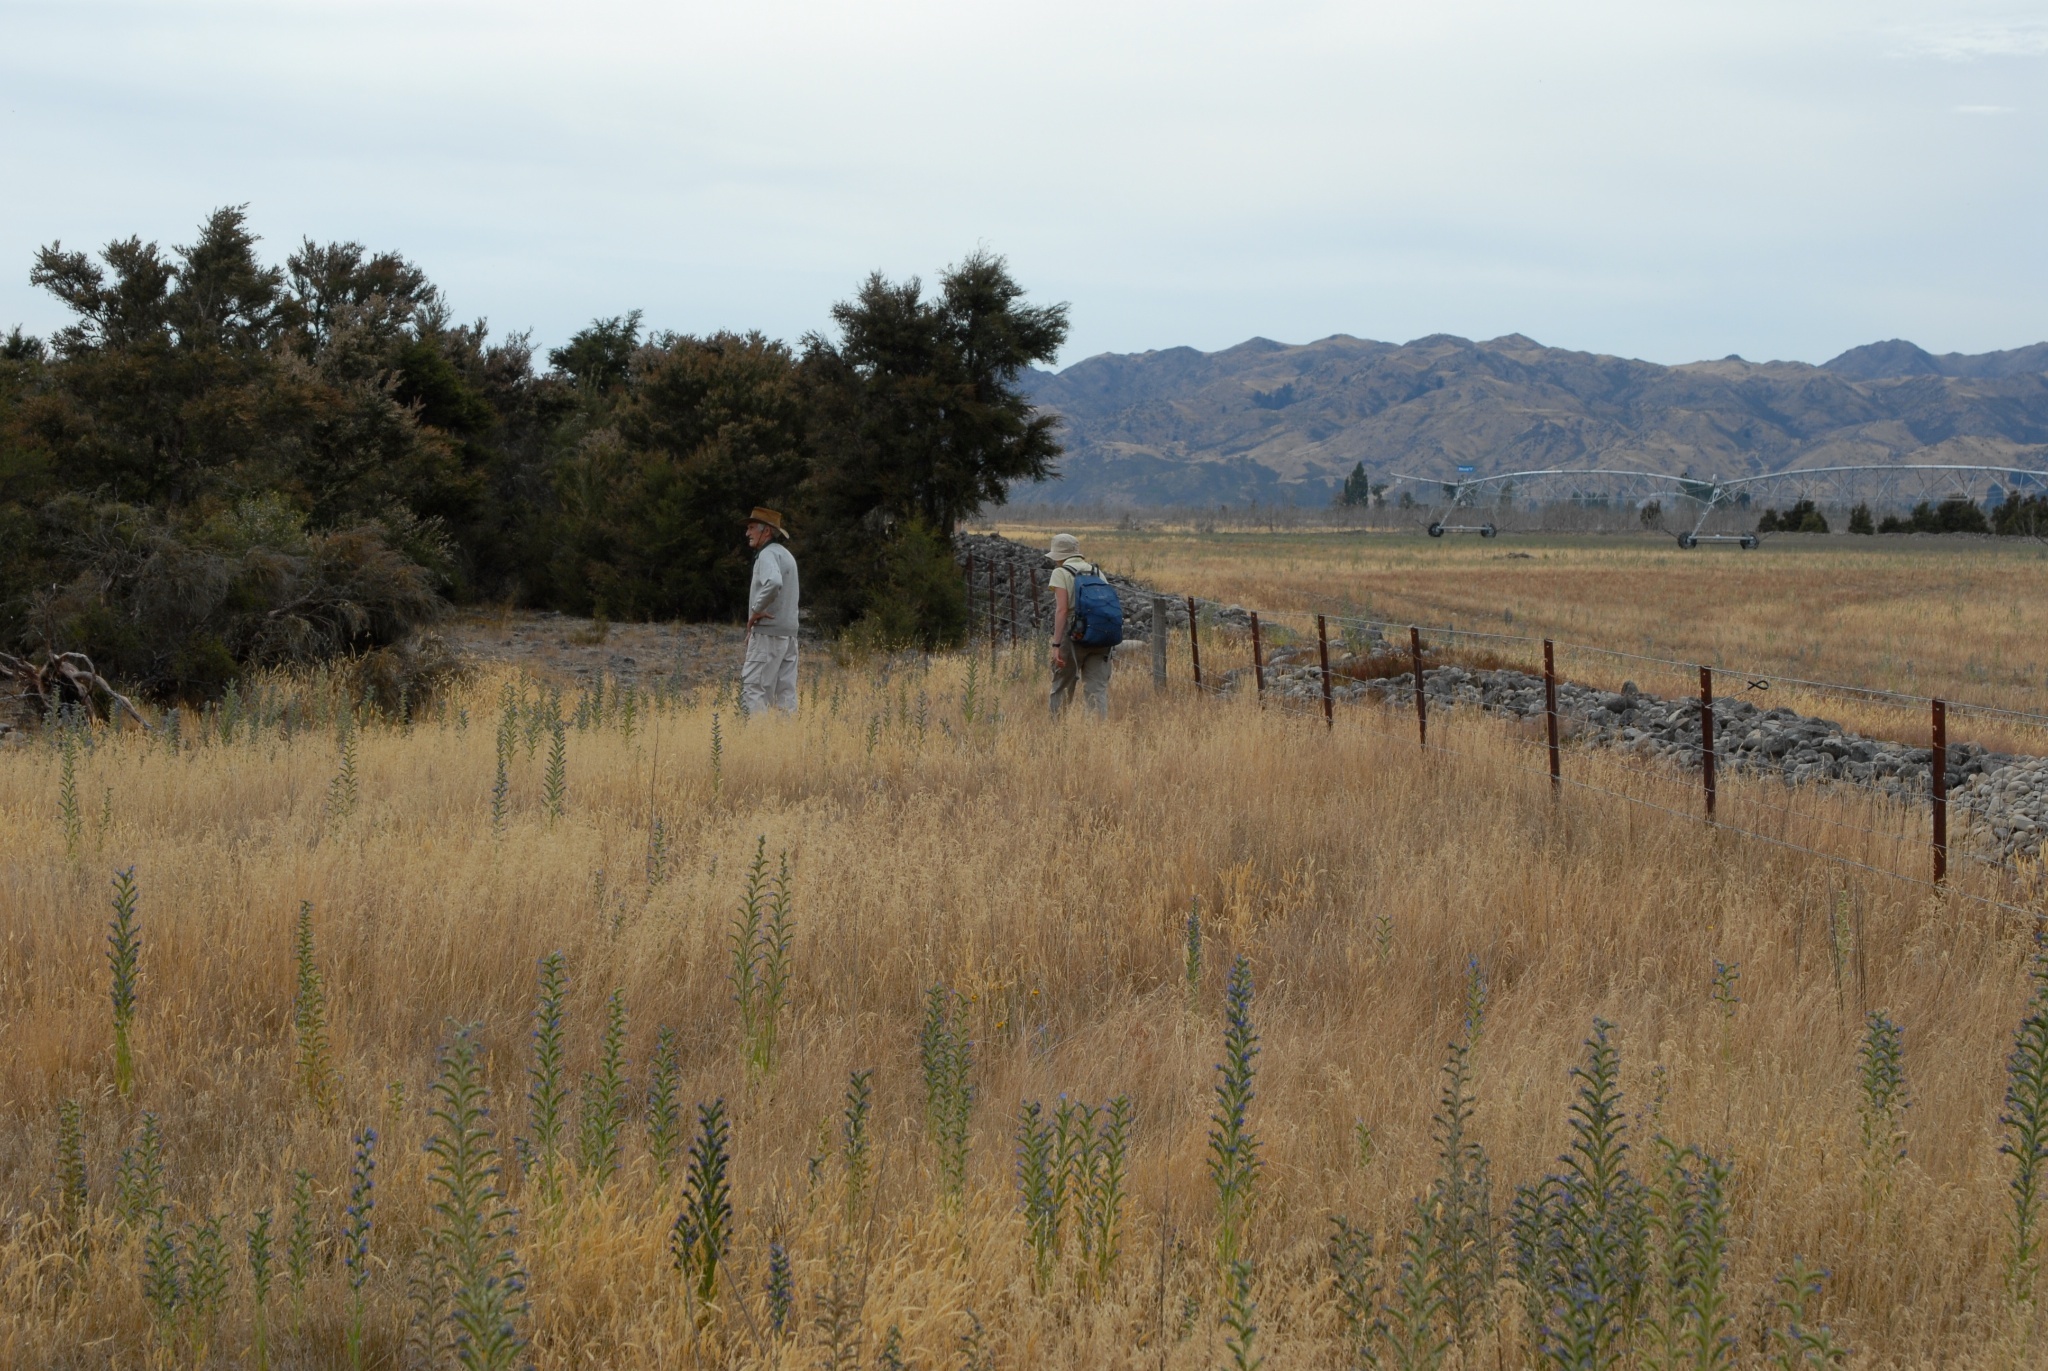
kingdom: Plantae
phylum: Tracheophyta
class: Magnoliopsida
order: Boraginales
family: Boraginaceae
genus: Echium
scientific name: Echium vulgare
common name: Common viper's bugloss
